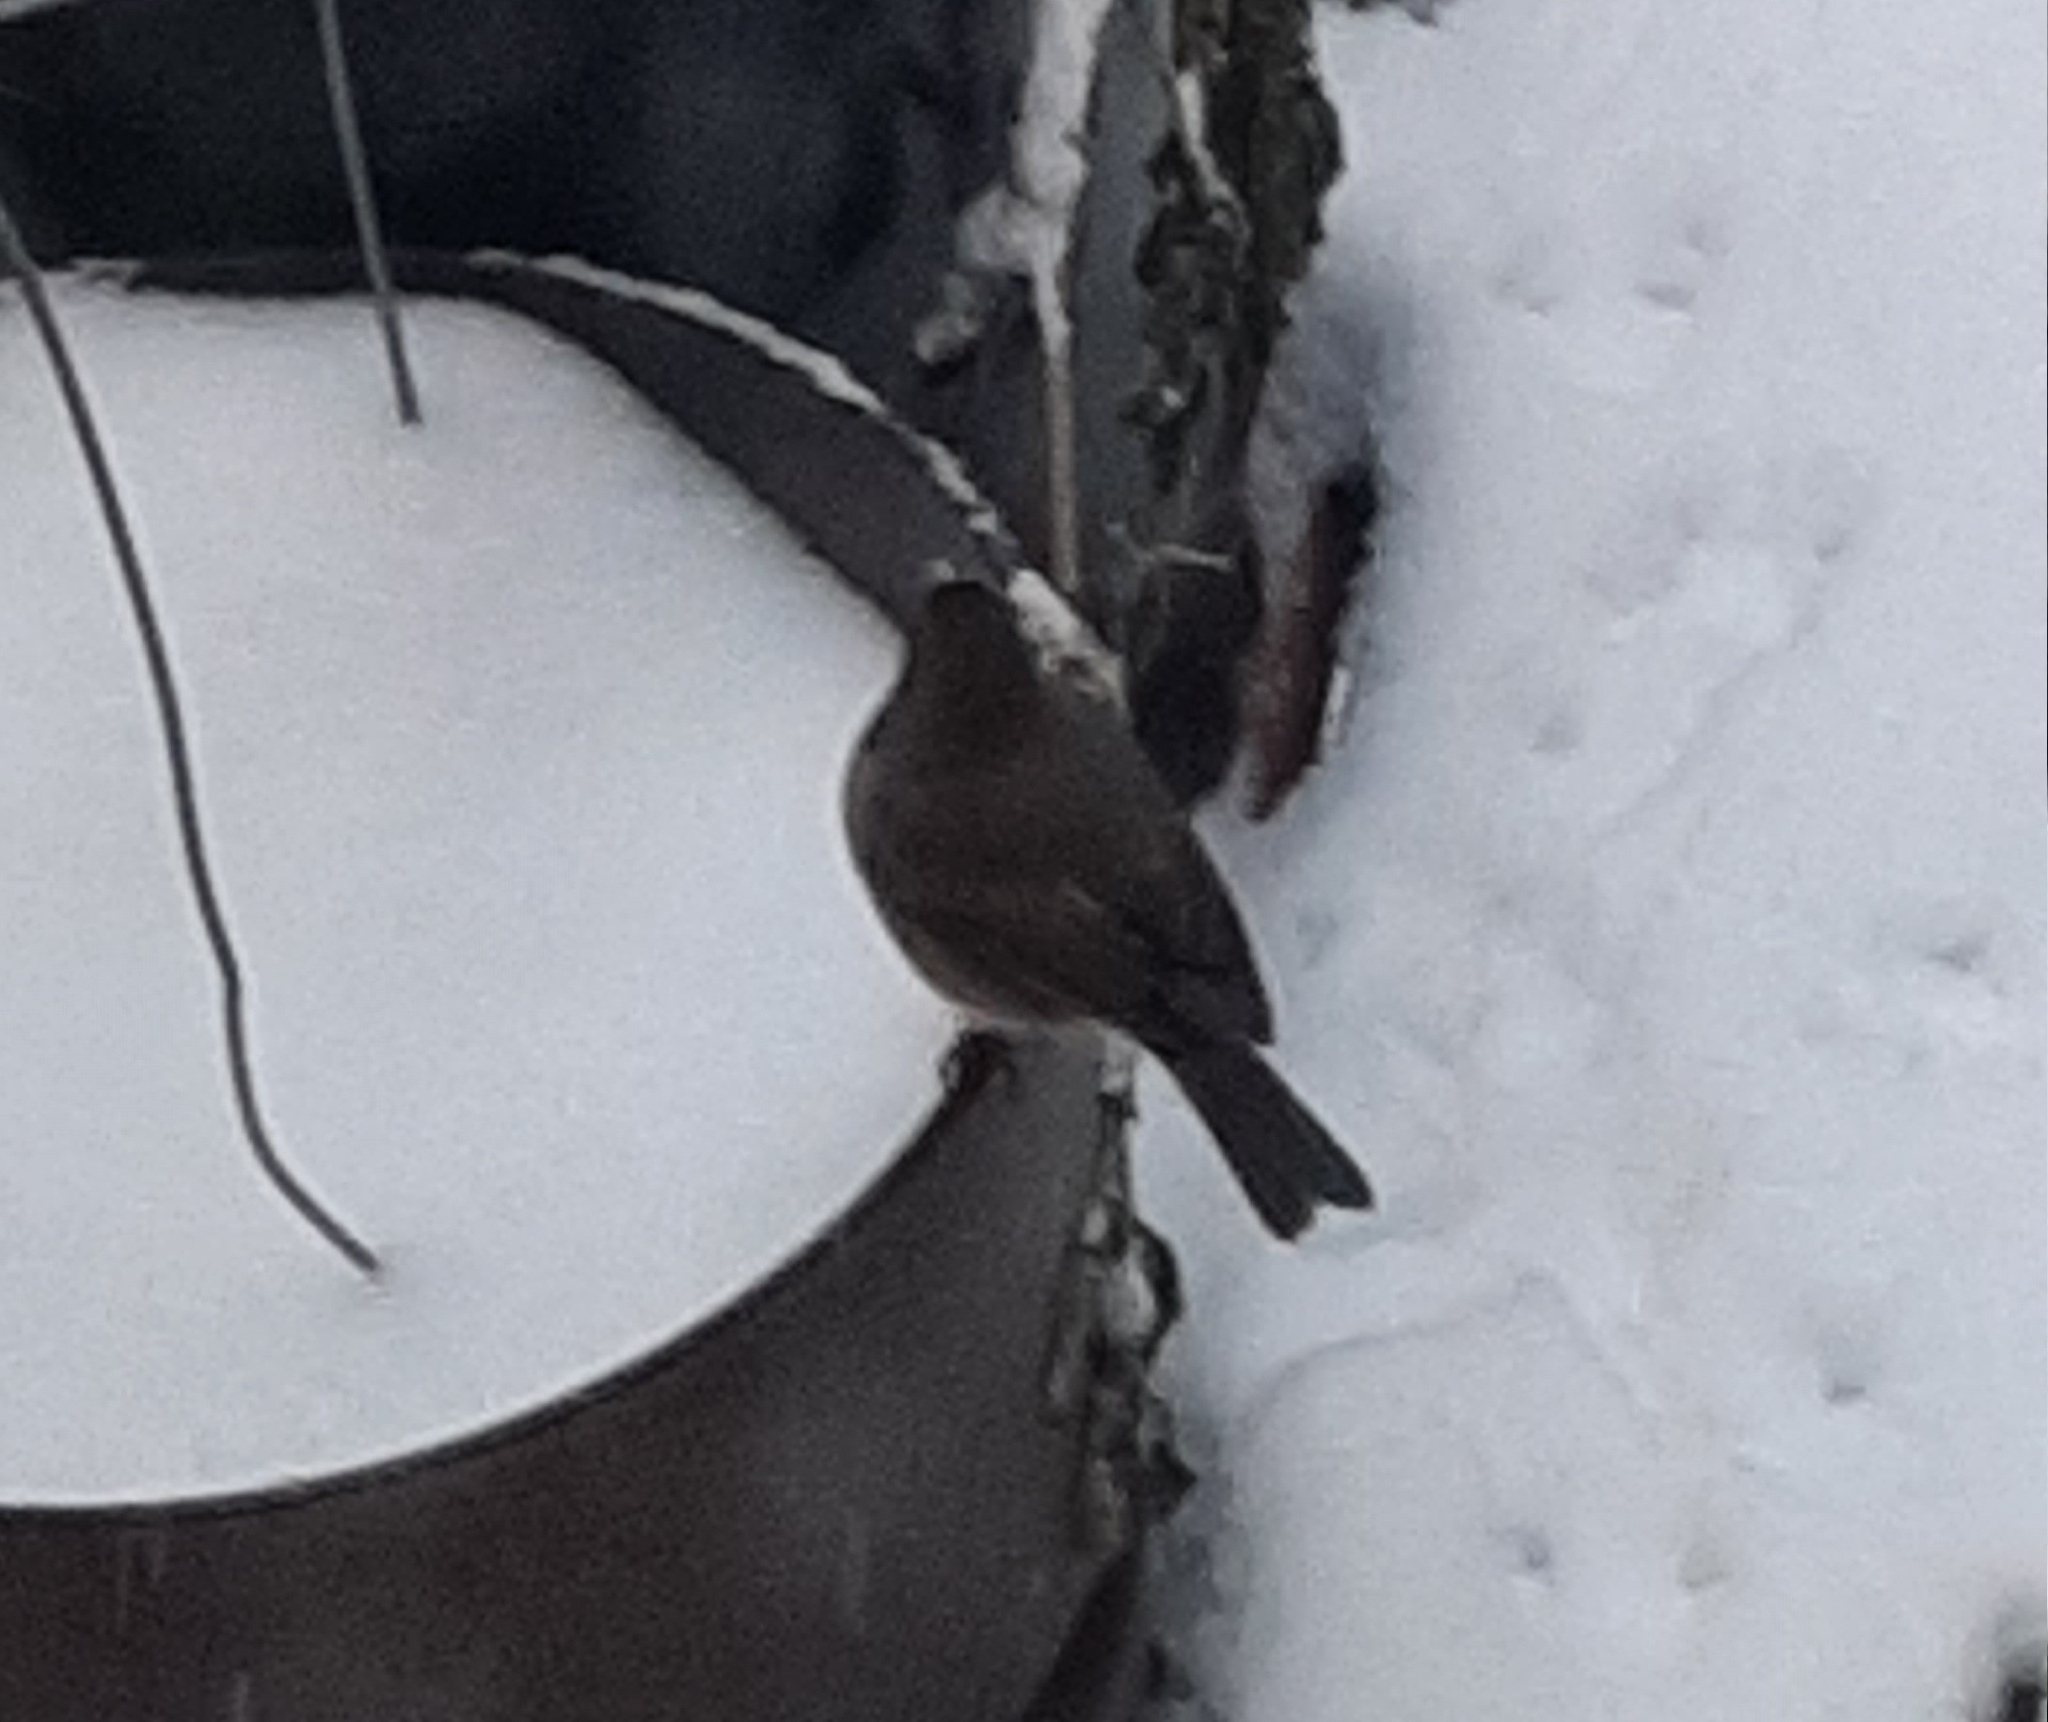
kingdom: Animalia
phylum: Chordata
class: Aves
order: Passeriformes
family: Passerellidae
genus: Junco
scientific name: Junco hyemalis
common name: Dark-eyed junco
